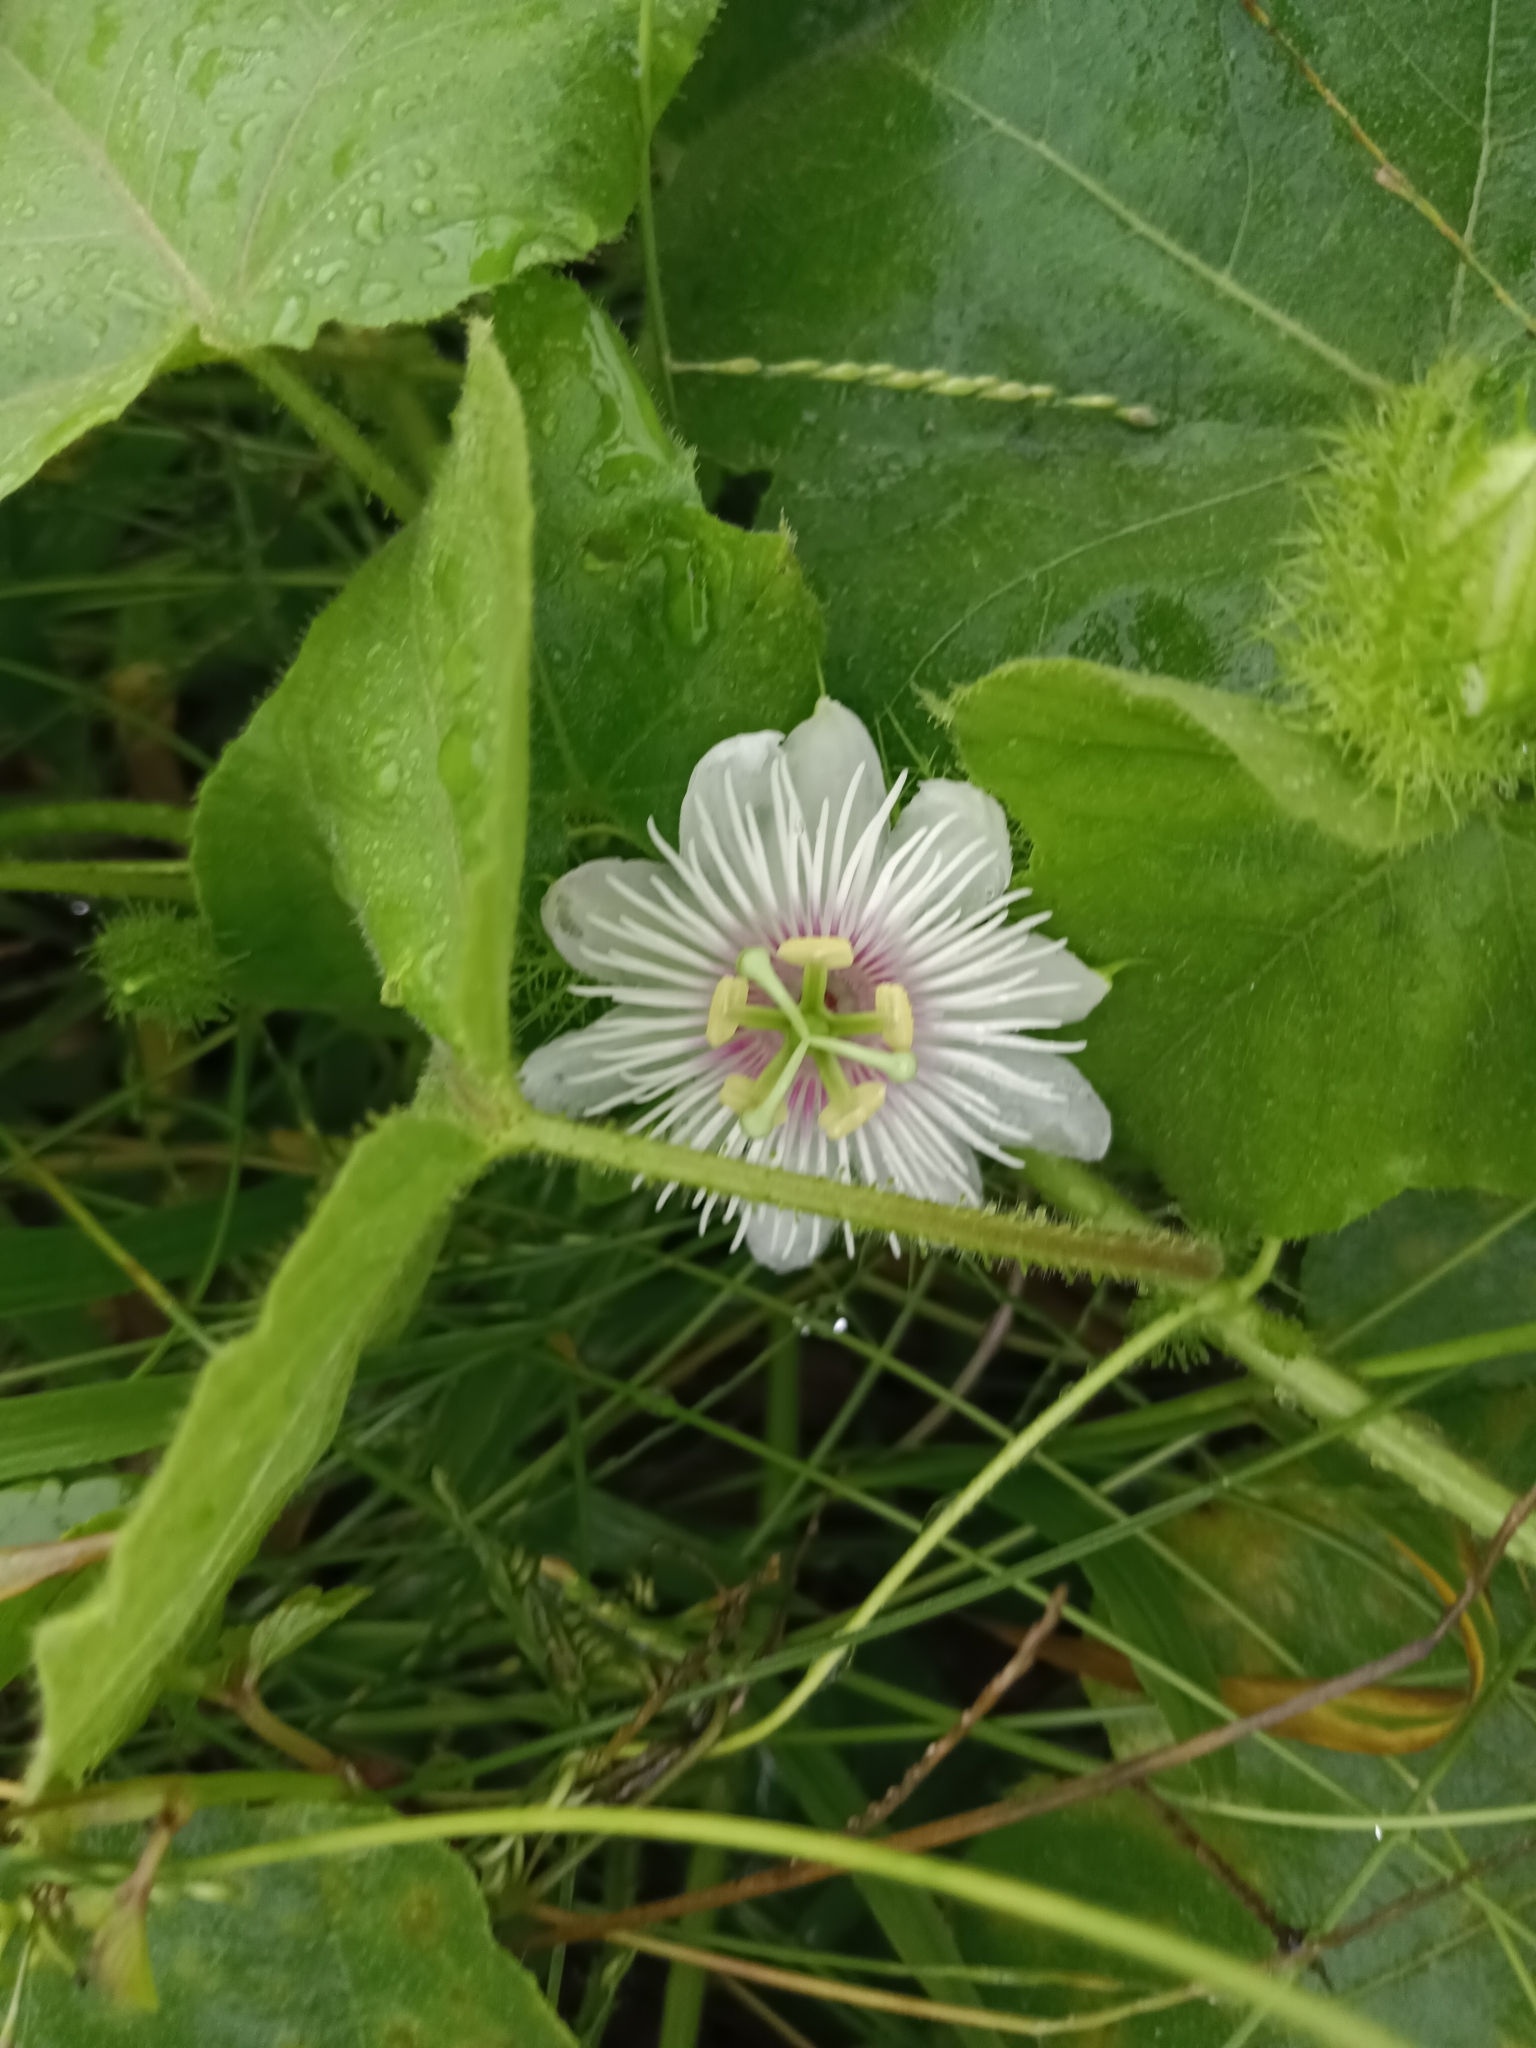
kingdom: Plantae
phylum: Tracheophyta
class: Magnoliopsida
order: Malpighiales
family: Passifloraceae
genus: Passiflora
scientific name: Passiflora vesicaria
